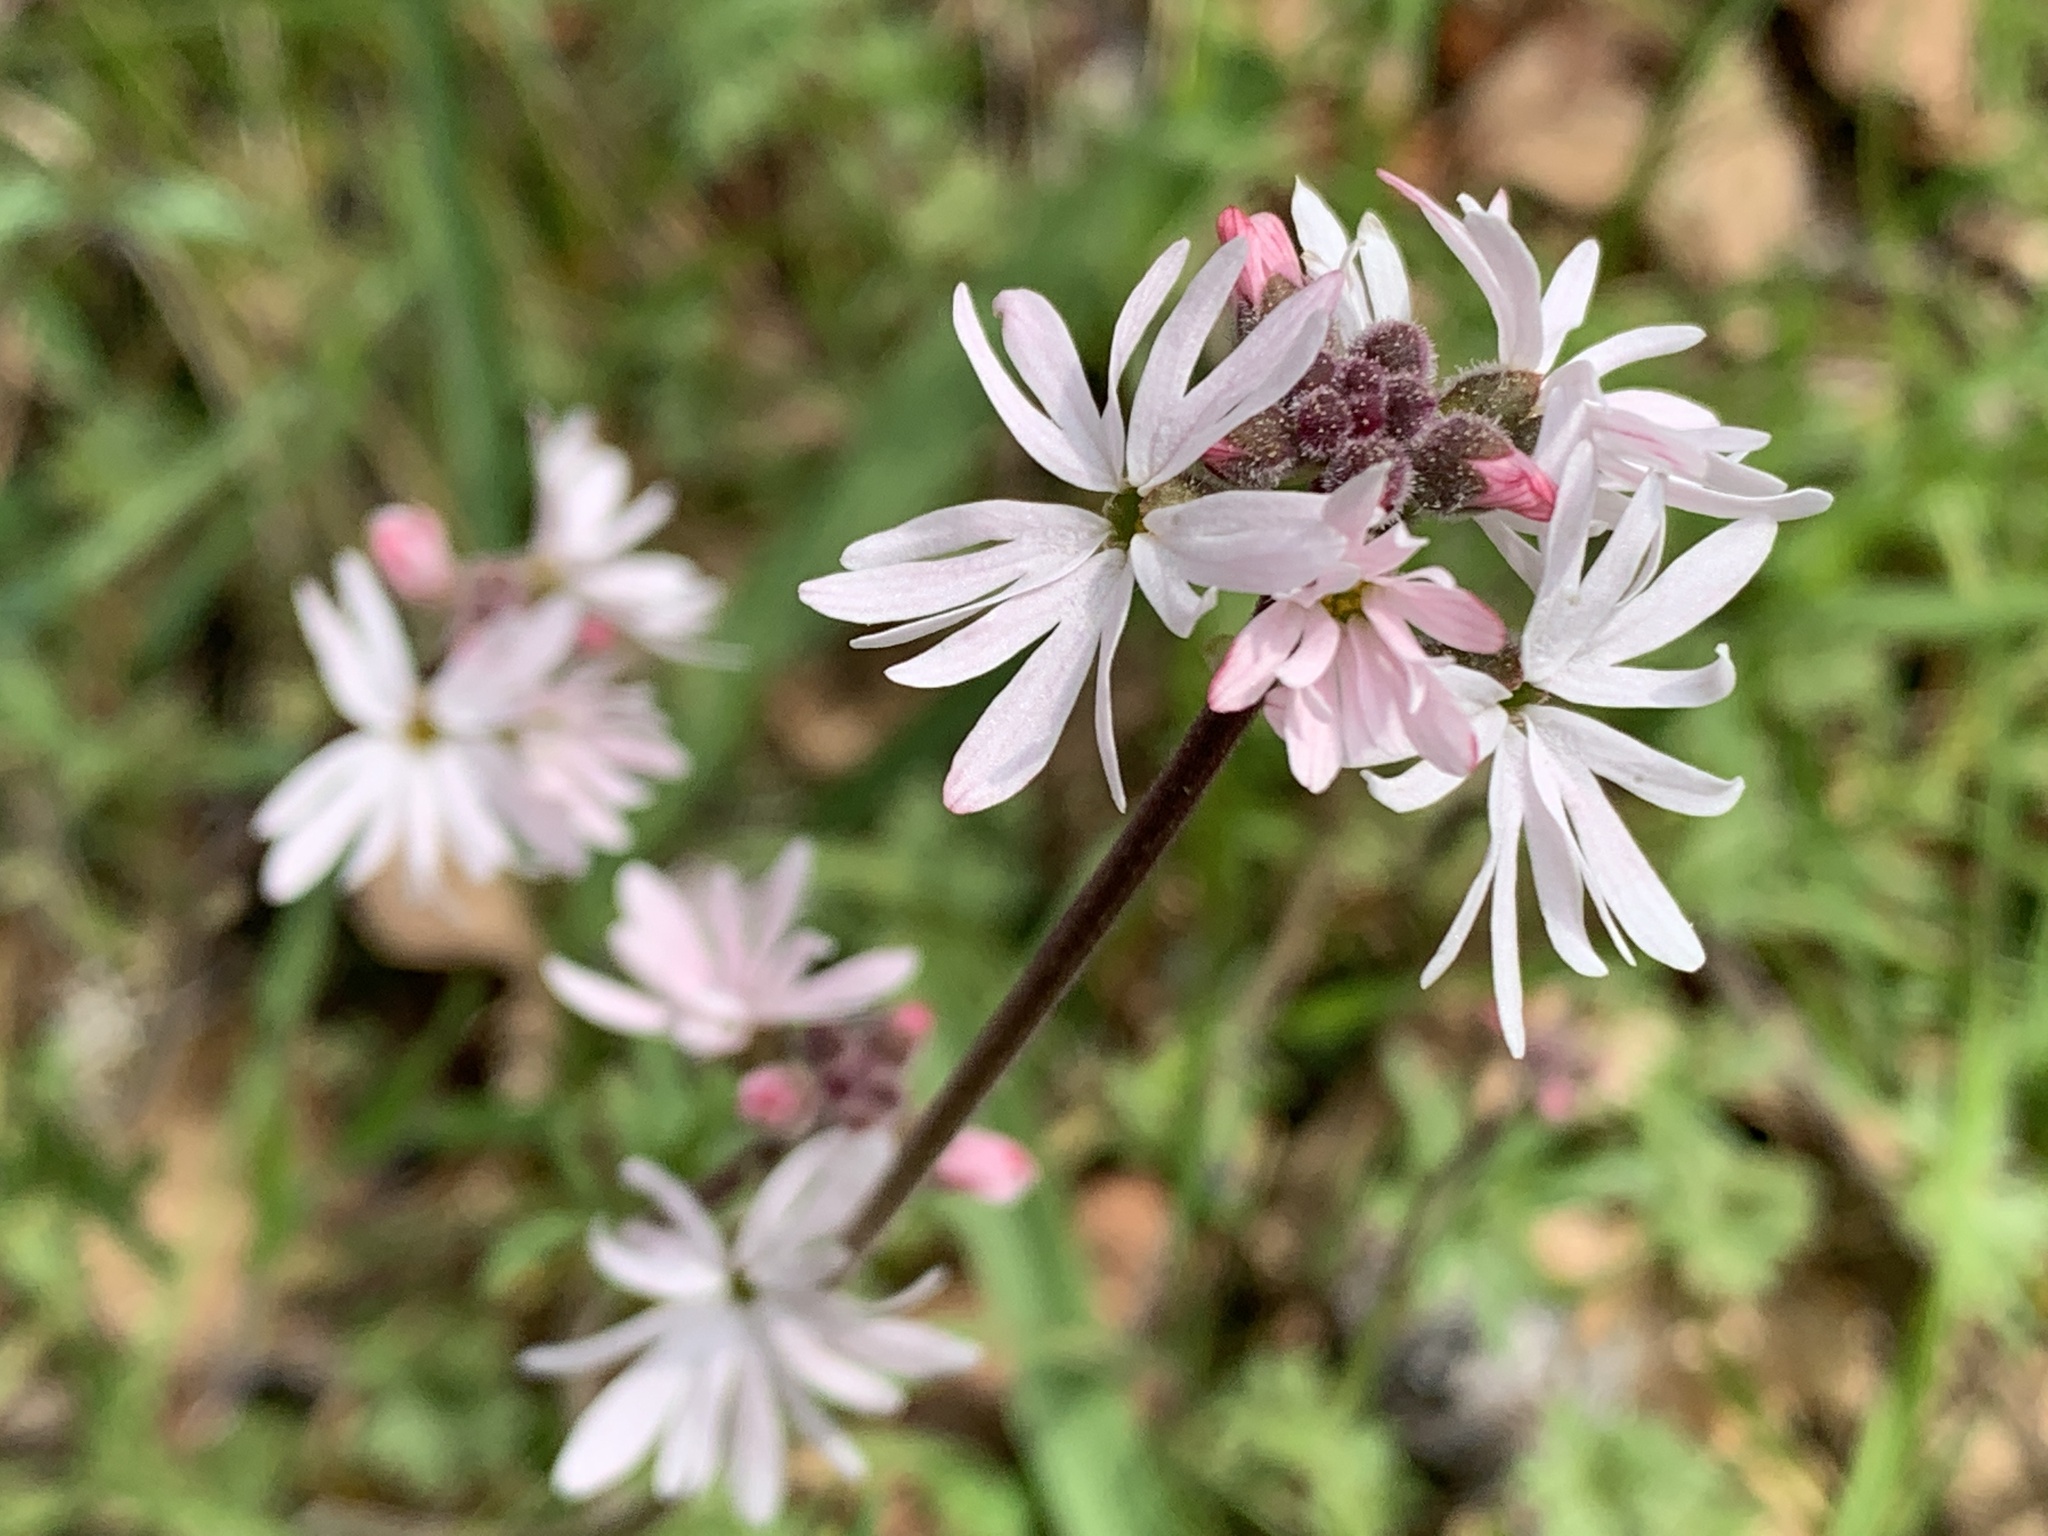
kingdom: Plantae
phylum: Tracheophyta
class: Magnoliopsida
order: Saxifragales
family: Saxifragaceae
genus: Lithophragma
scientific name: Lithophragma parviflorum
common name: Small-flowered fringe-cup
